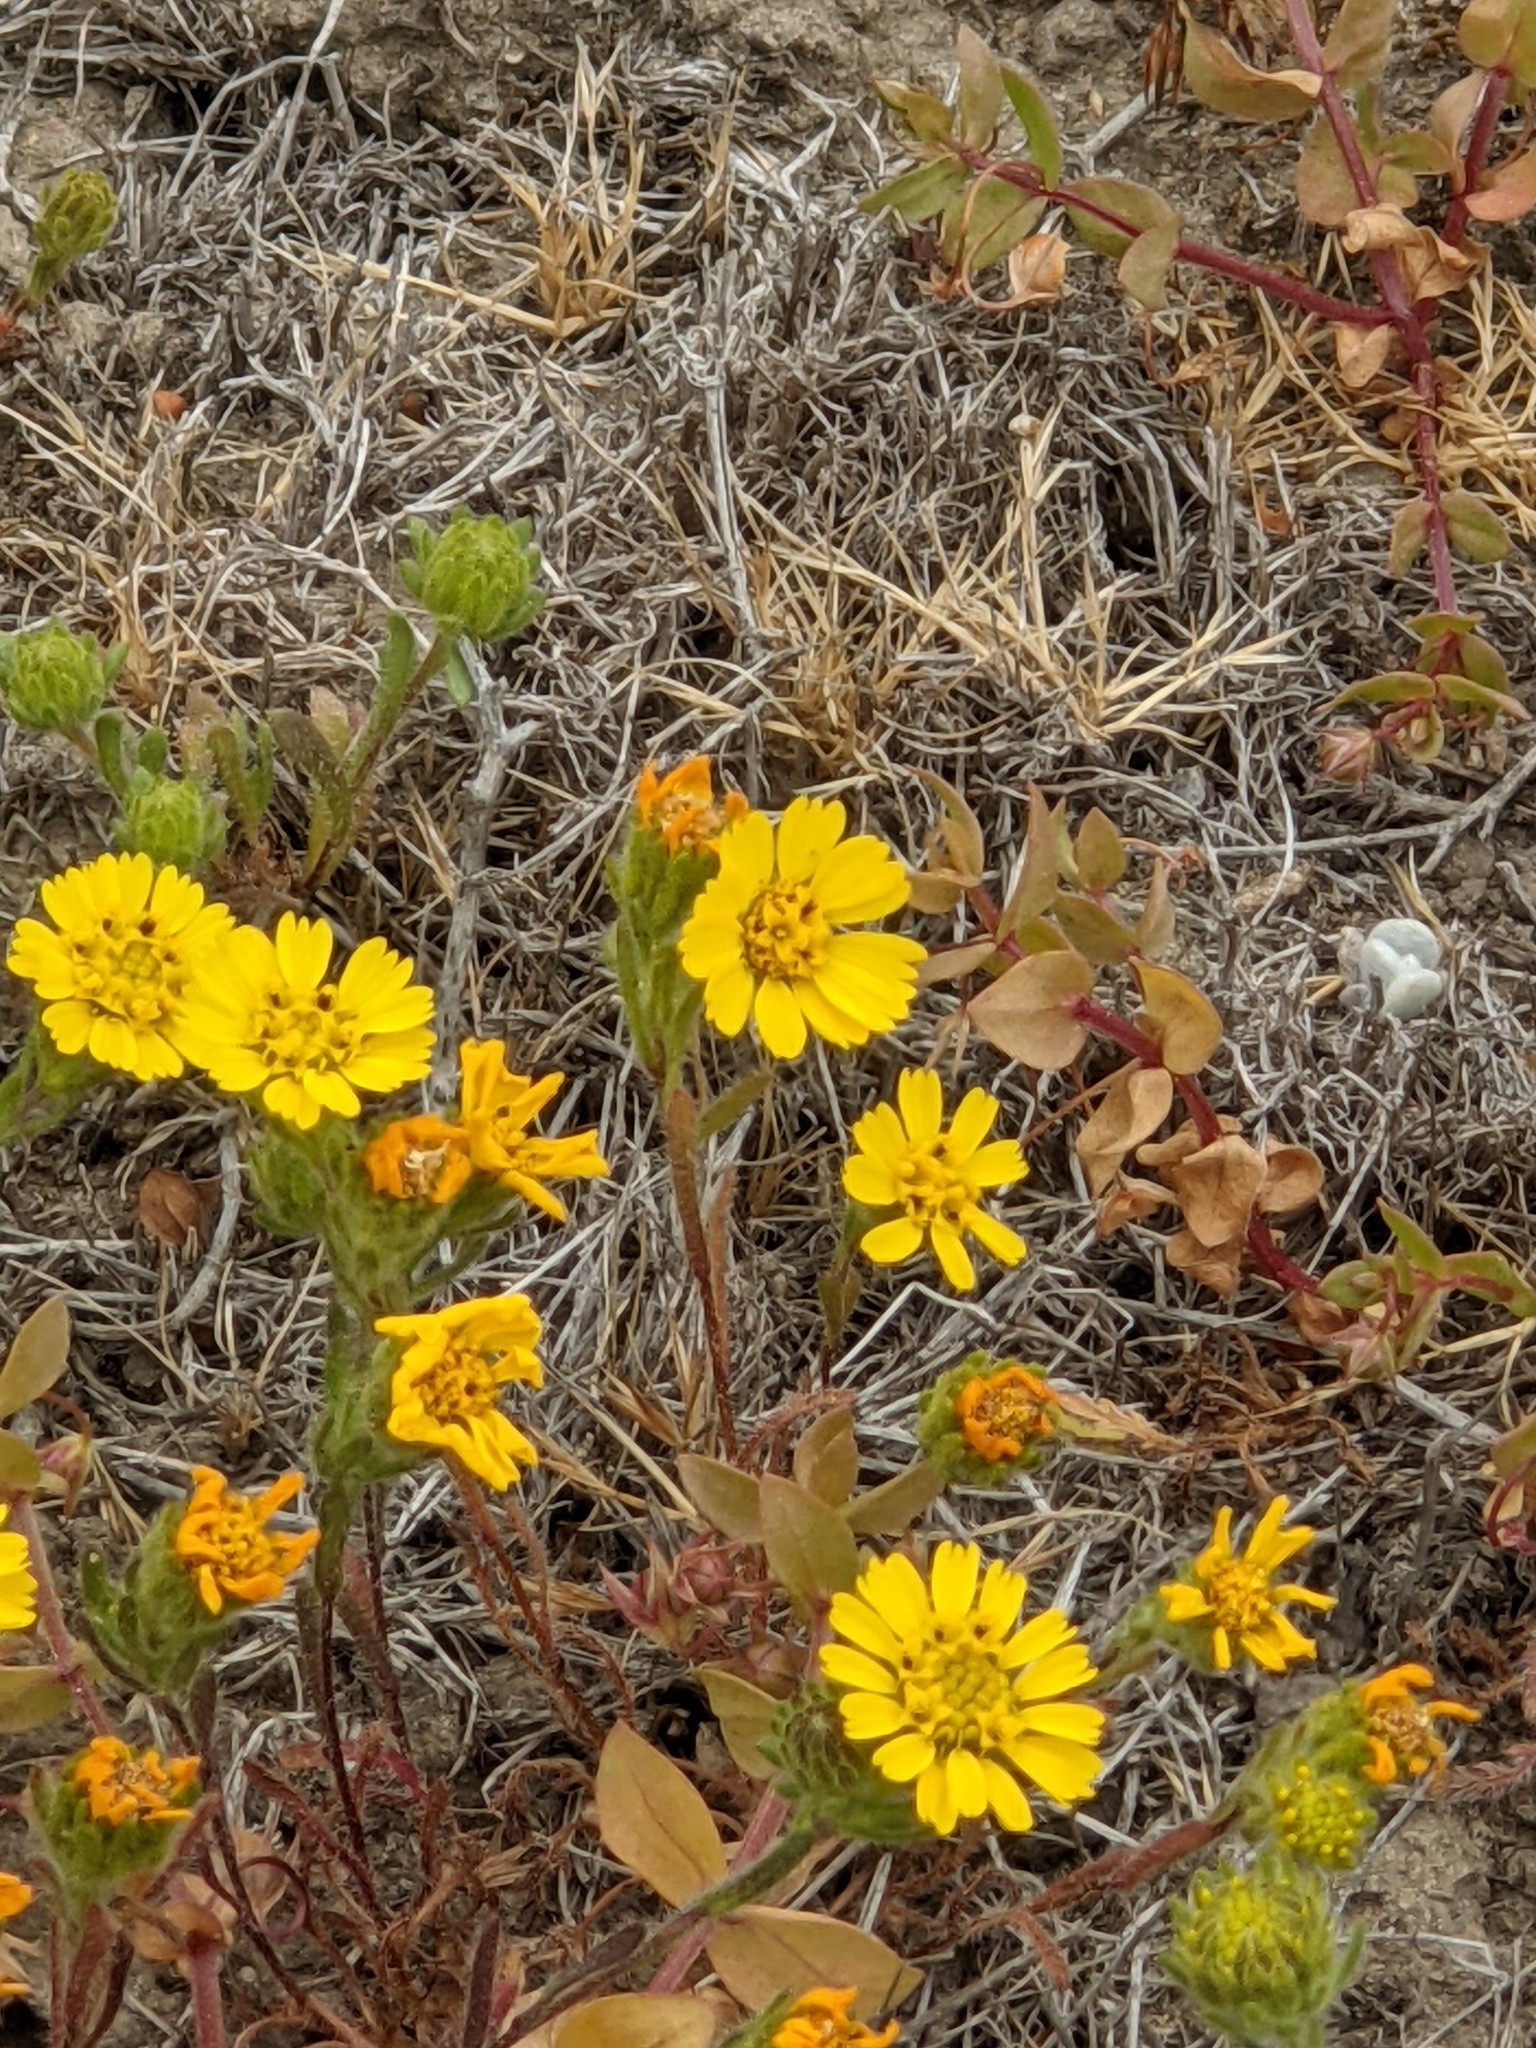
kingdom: Plantae
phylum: Tracheophyta
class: Magnoliopsida
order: Asterales
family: Asteraceae
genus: Deinandra
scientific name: Deinandra corymbosa
